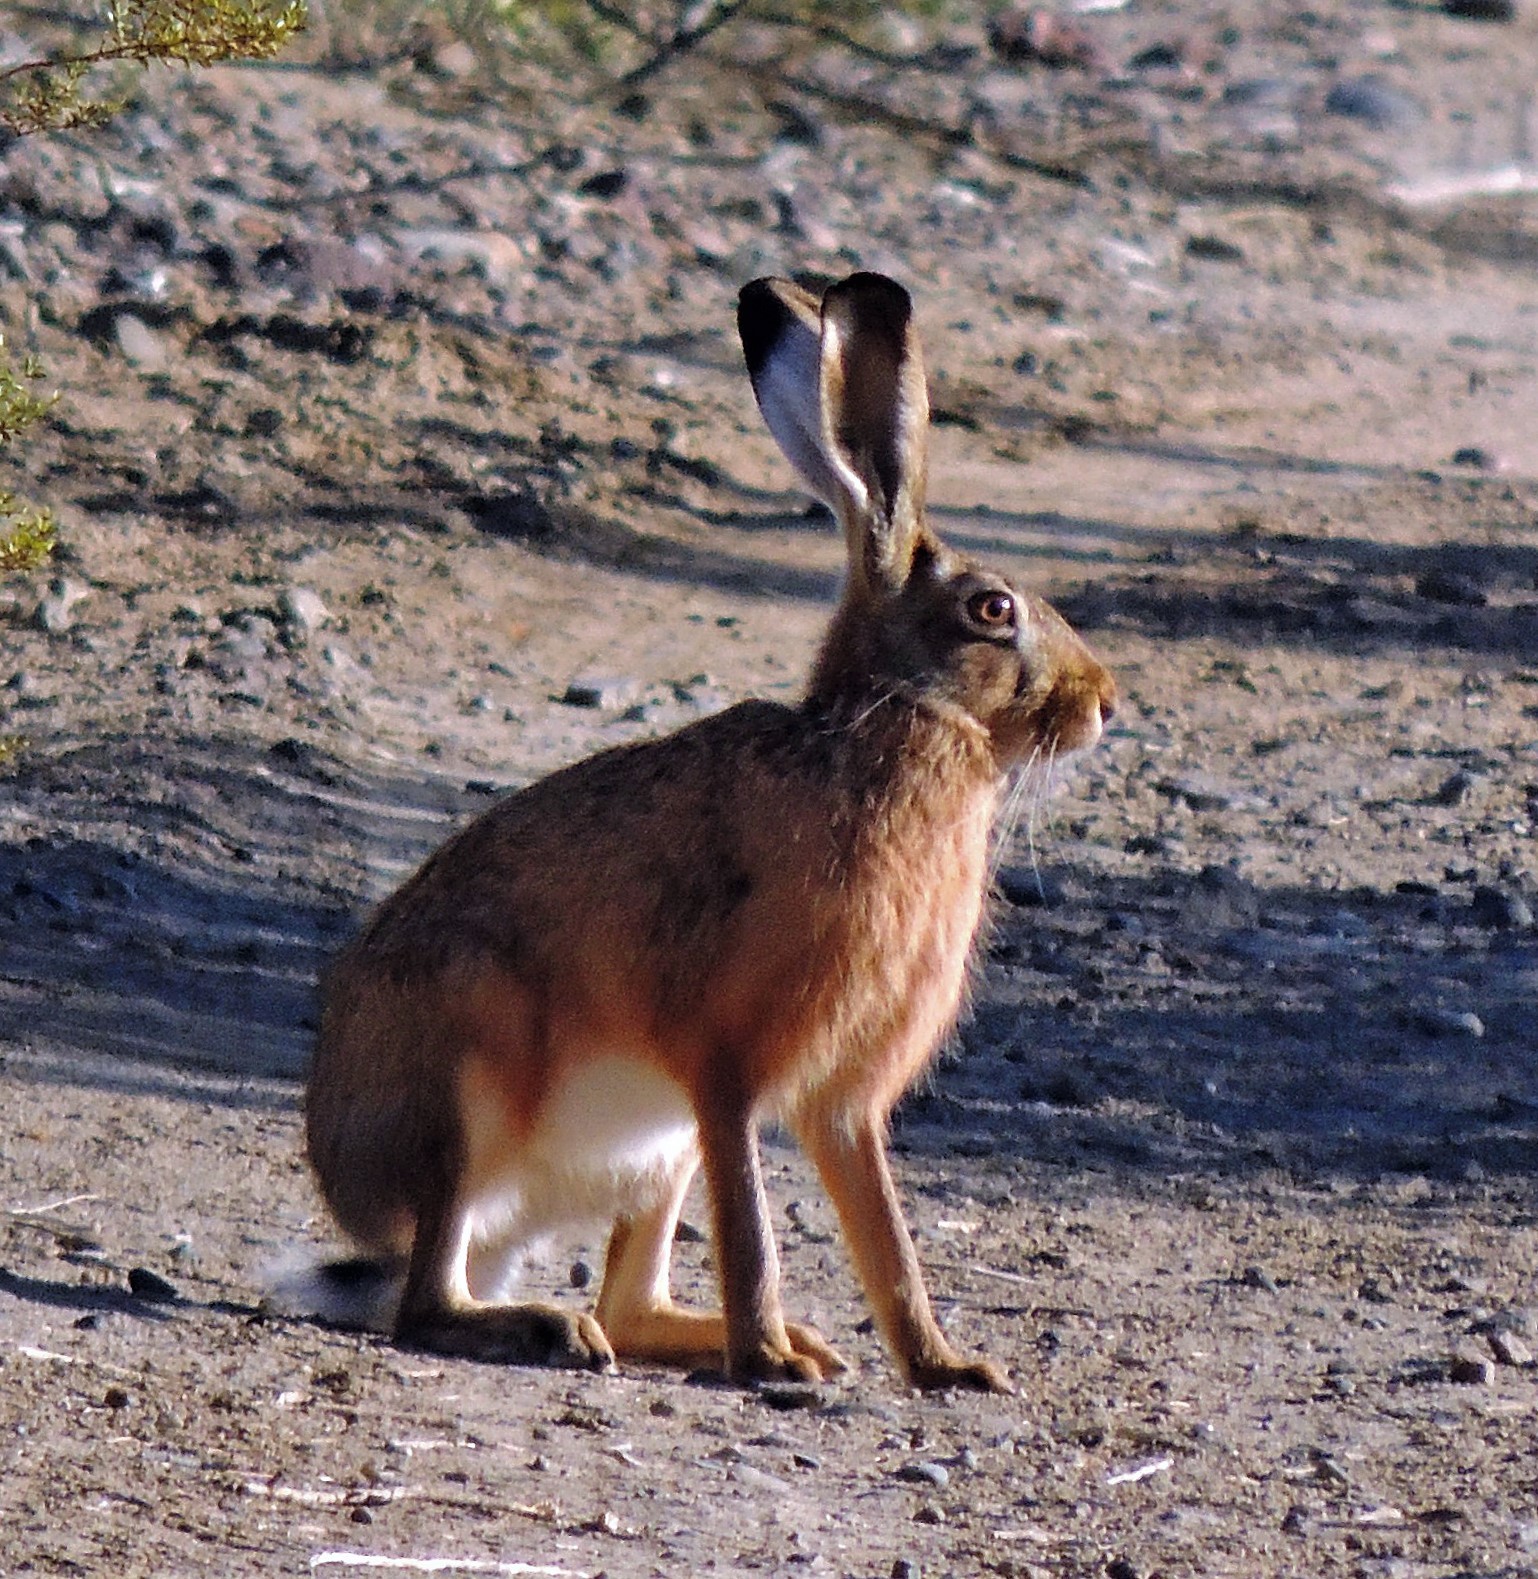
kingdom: Animalia
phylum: Chordata
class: Mammalia
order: Lagomorpha
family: Leporidae
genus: Lepus
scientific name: Lepus europaeus
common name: European hare
